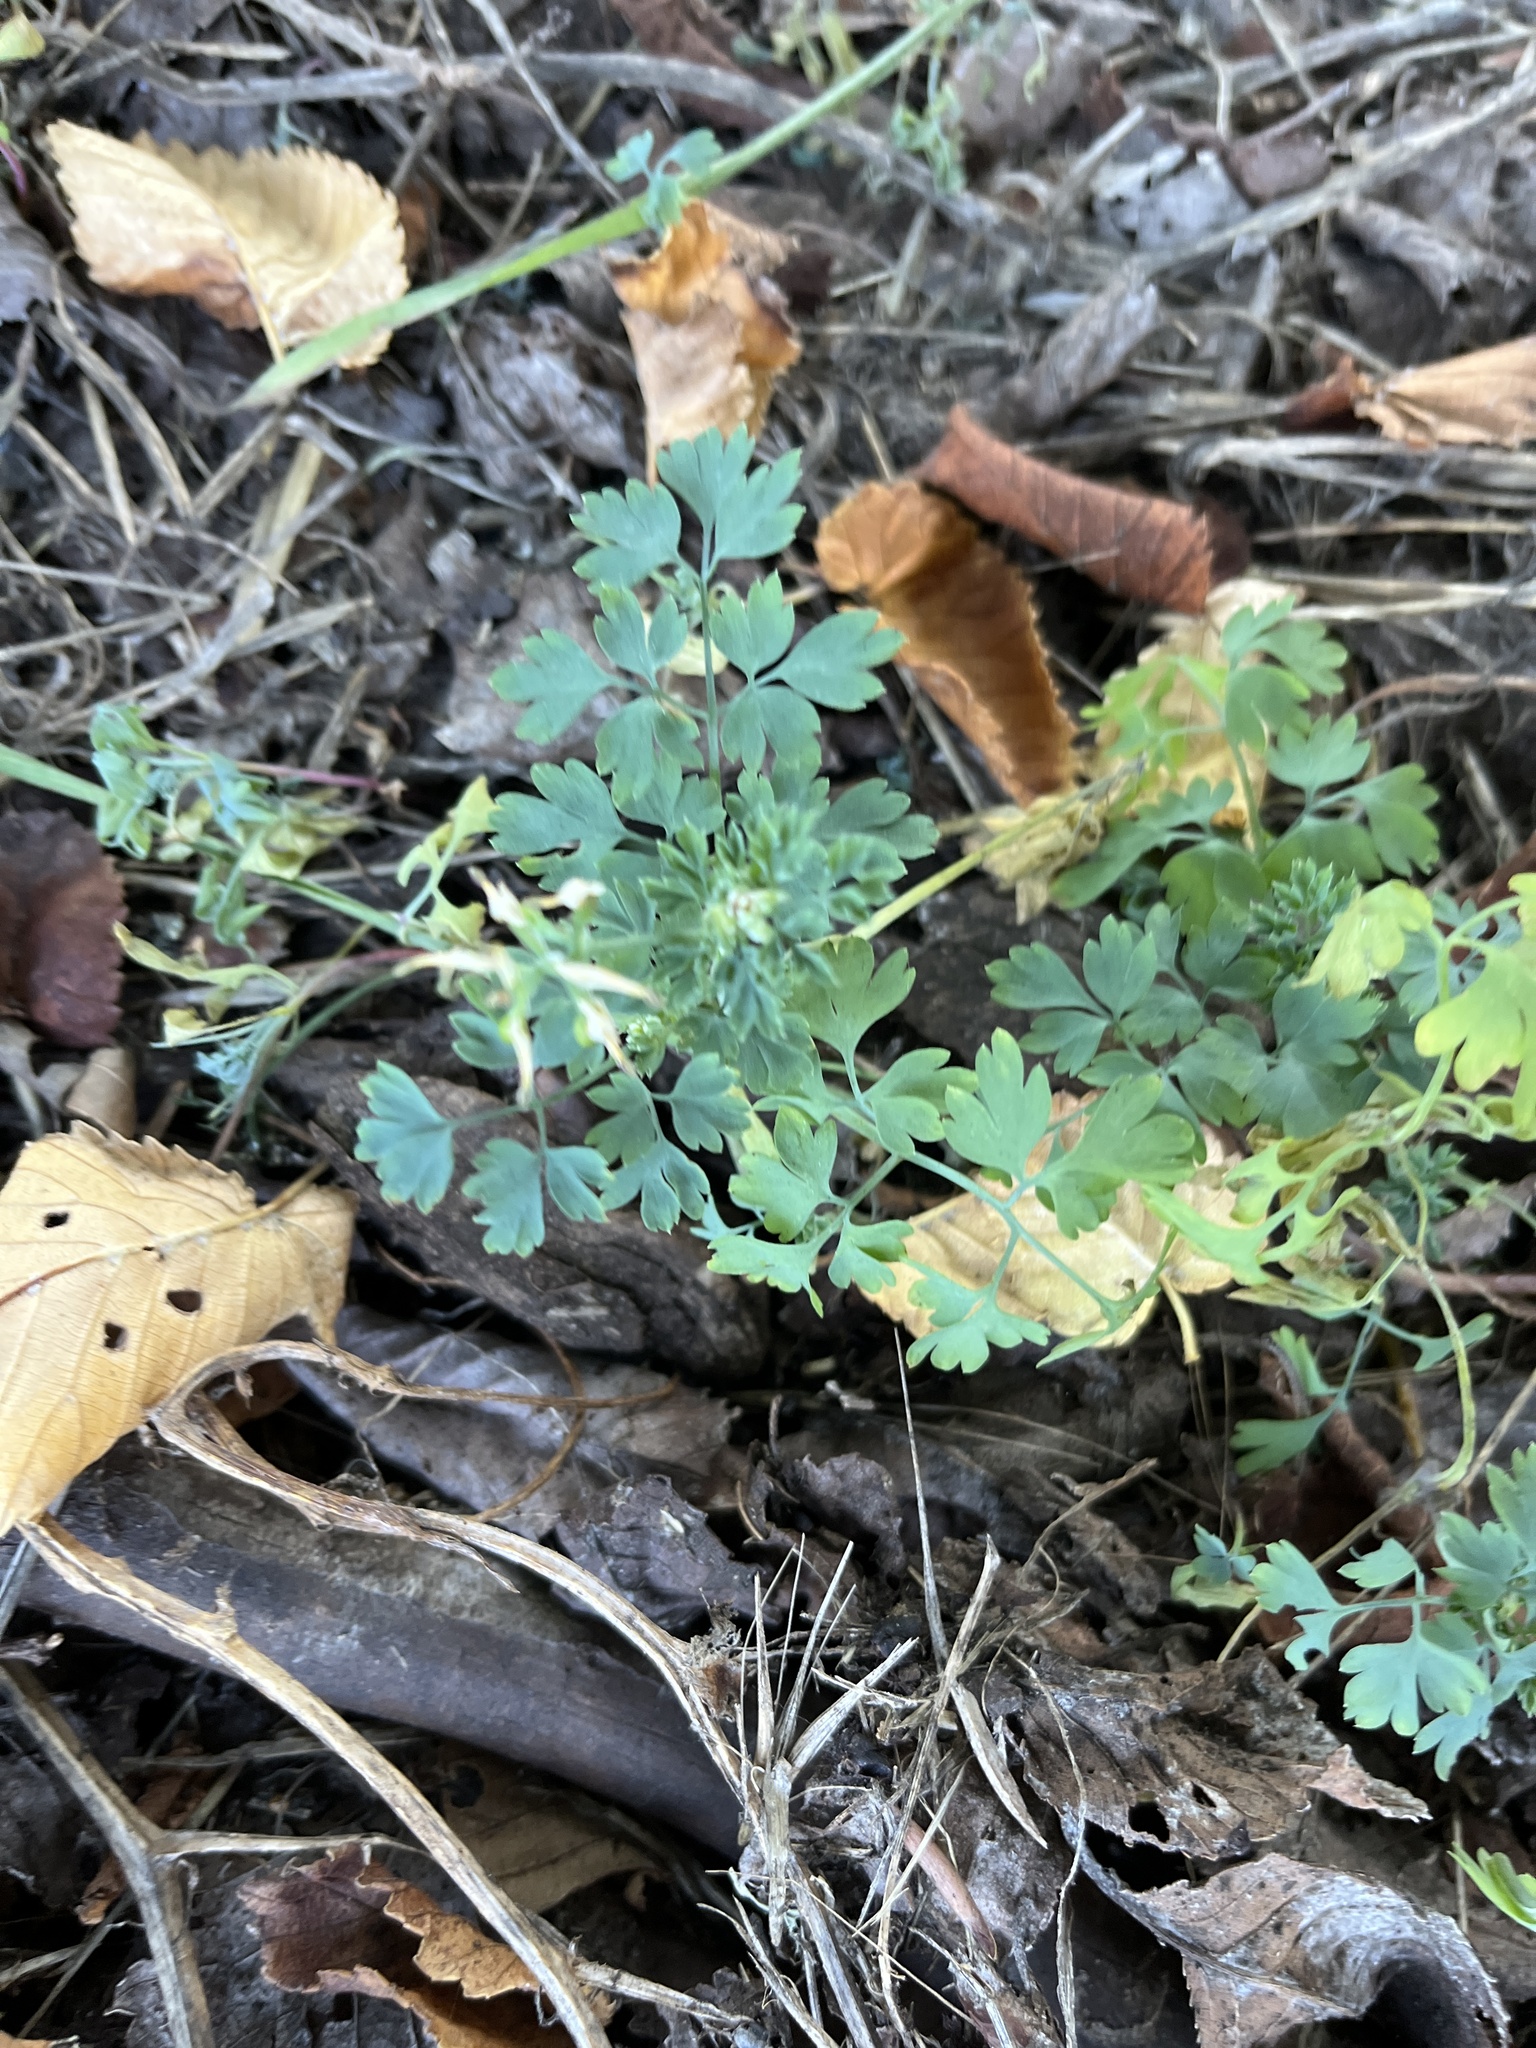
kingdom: Plantae
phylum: Tracheophyta
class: Magnoliopsida
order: Ranunculales
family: Papaveraceae
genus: Fumaria
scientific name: Fumaria
